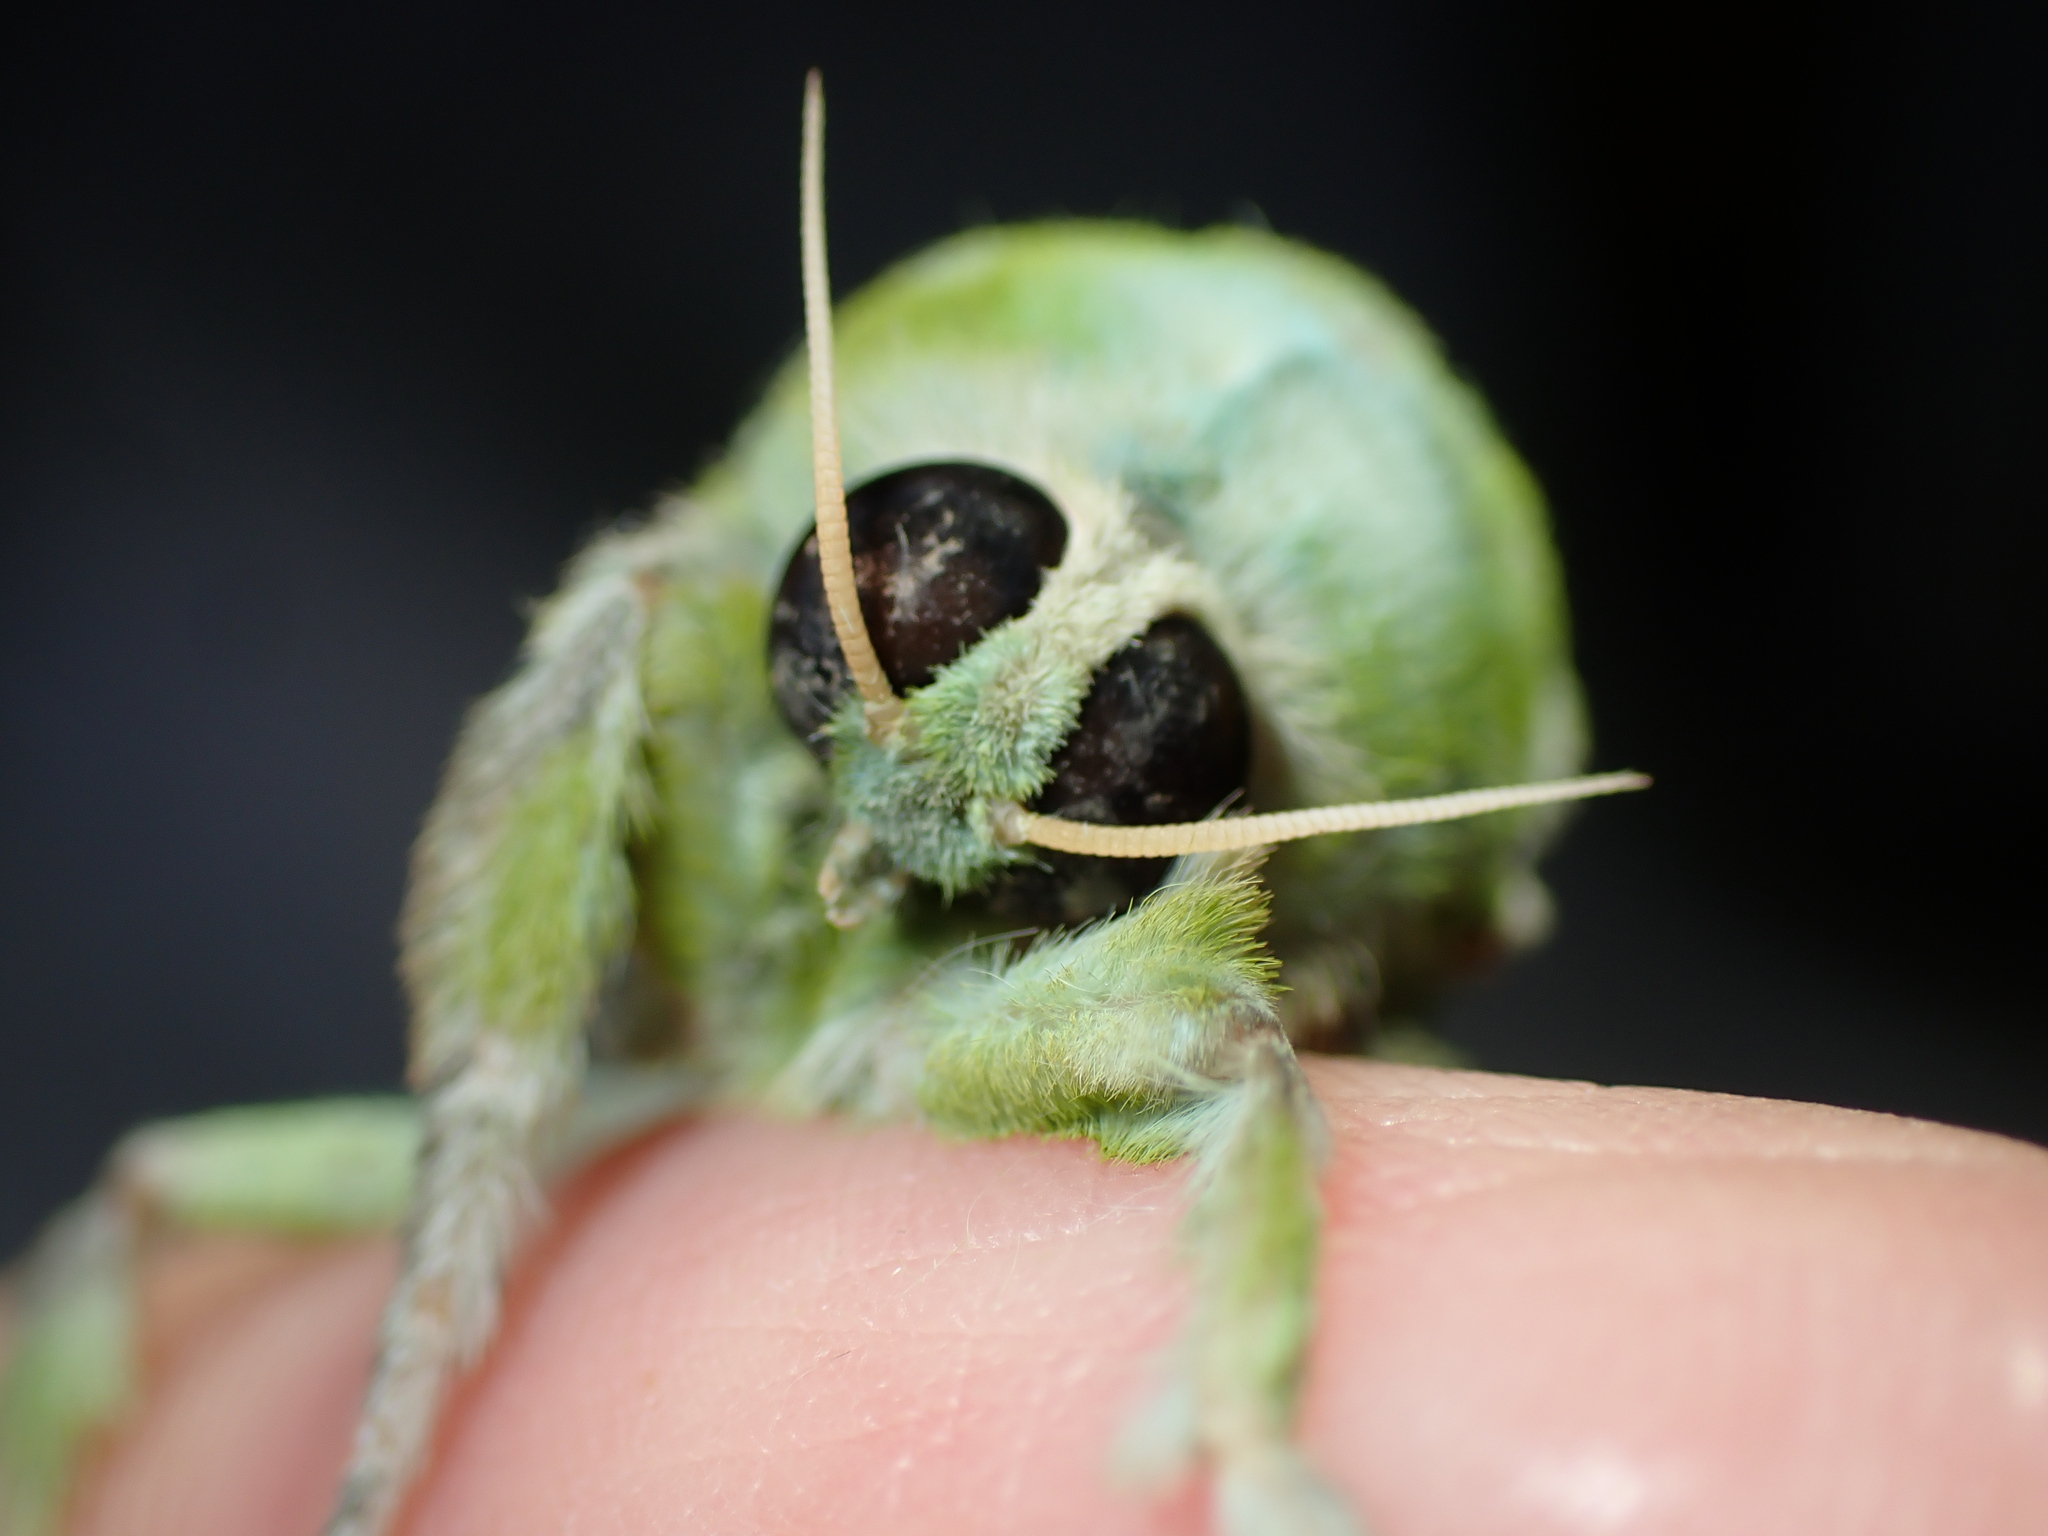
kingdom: Animalia
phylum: Arthropoda
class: Insecta
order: Lepidoptera
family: Hepialidae
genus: Aenetus
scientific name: Aenetus virescens
